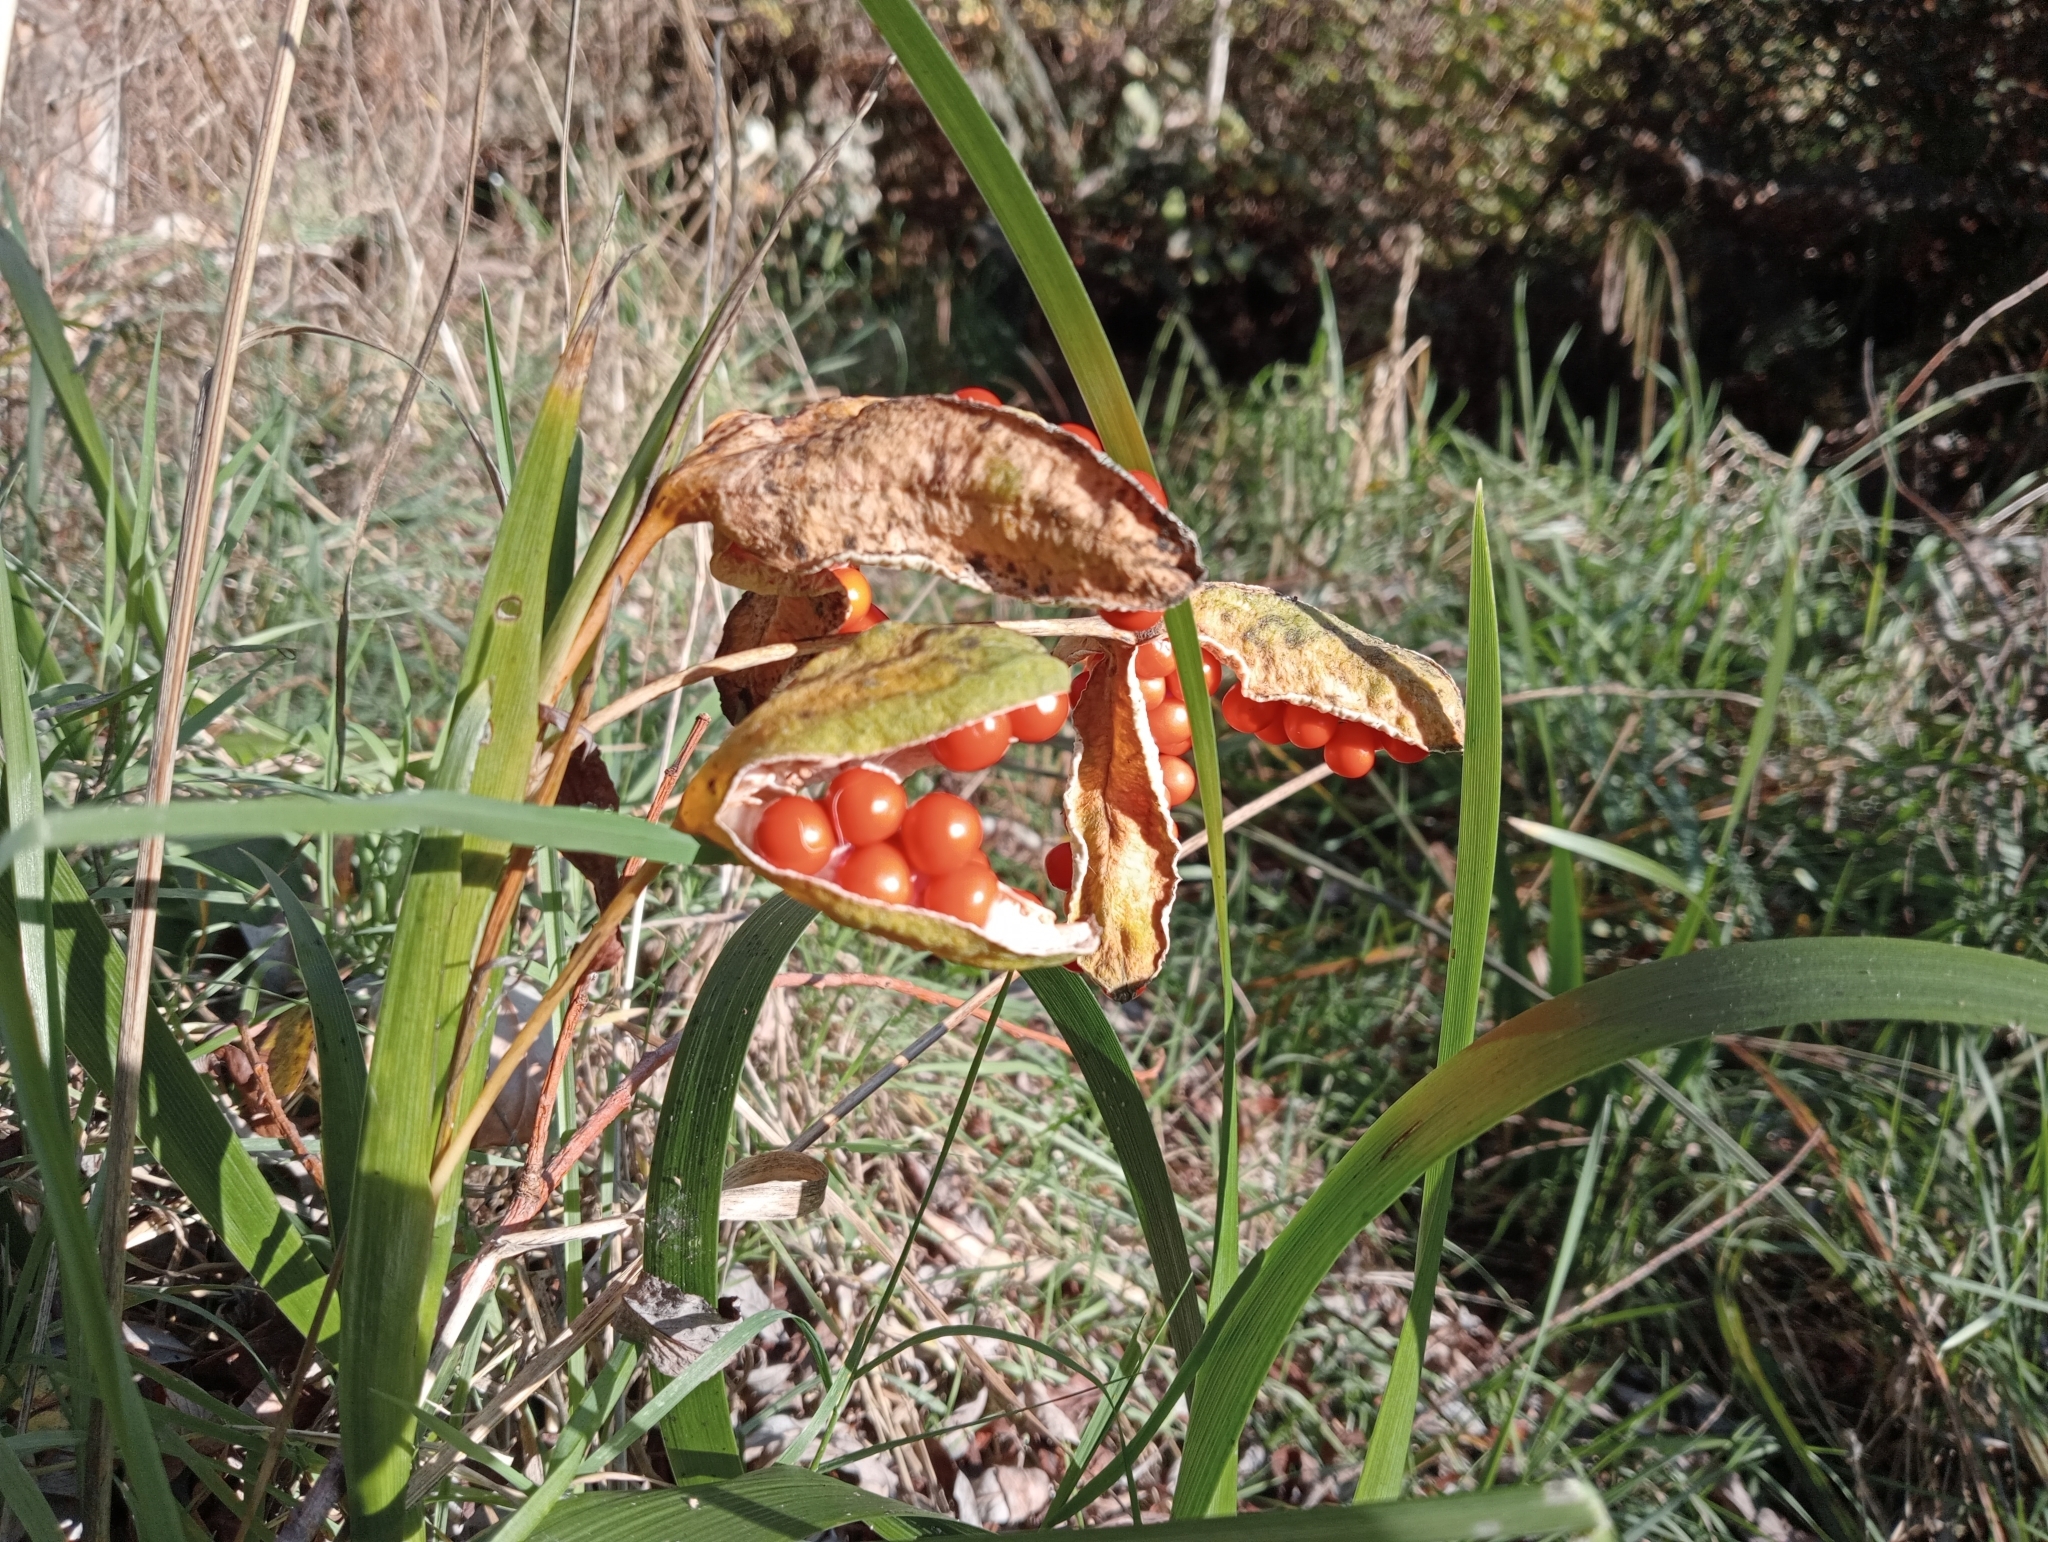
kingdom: Plantae
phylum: Tracheophyta
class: Liliopsida
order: Asparagales
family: Iridaceae
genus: Iris
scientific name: Iris foetidissima
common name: Stinking iris
